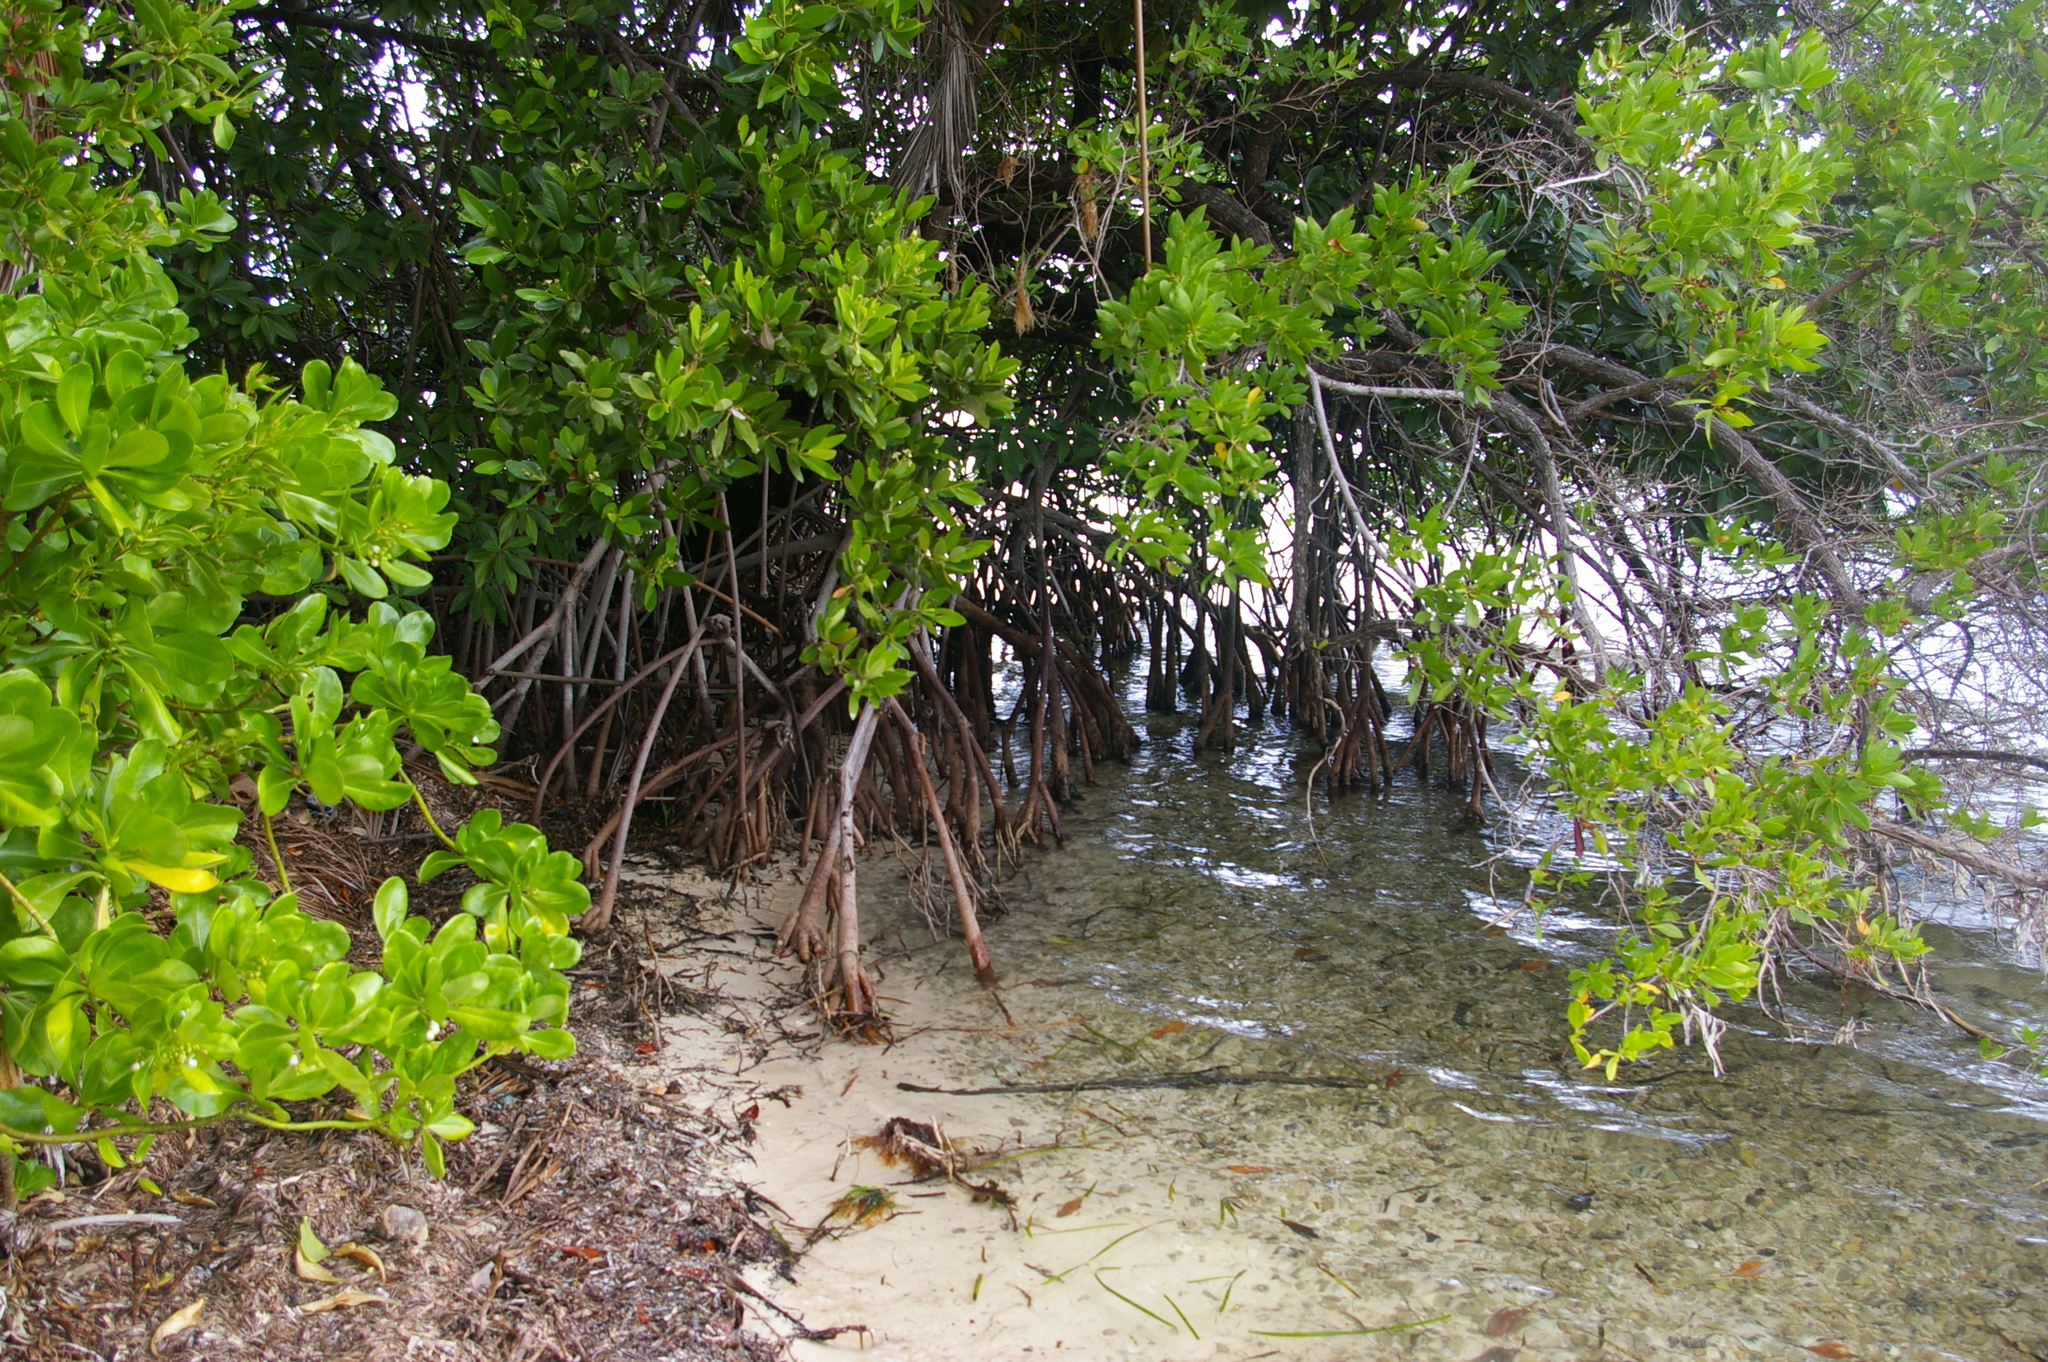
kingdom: Plantae
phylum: Tracheophyta
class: Magnoliopsida
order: Malpighiales
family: Rhizophoraceae
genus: Rhizophora
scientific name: Rhizophora mangle
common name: Red mangrove
